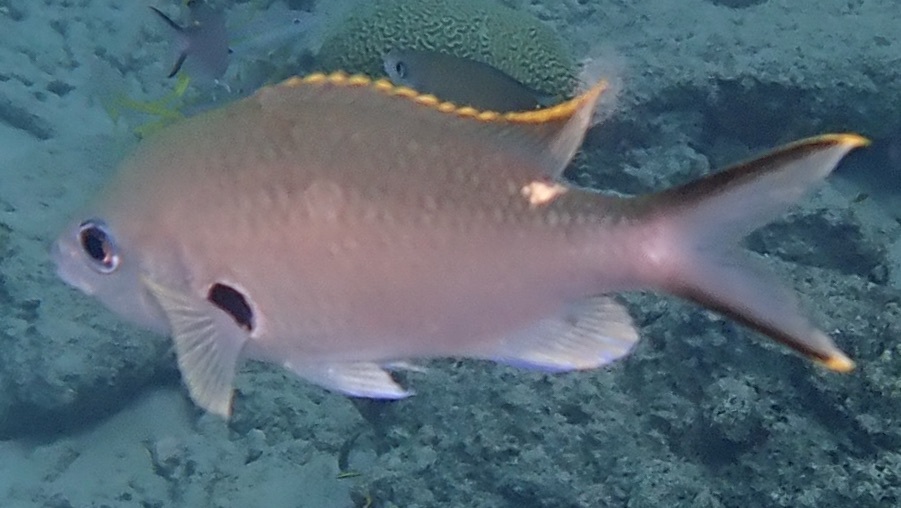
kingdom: Animalia
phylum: Chordata
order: Perciformes
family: Pomacentridae
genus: Chromis
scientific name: Chromis multilineata
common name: Brown chromis
